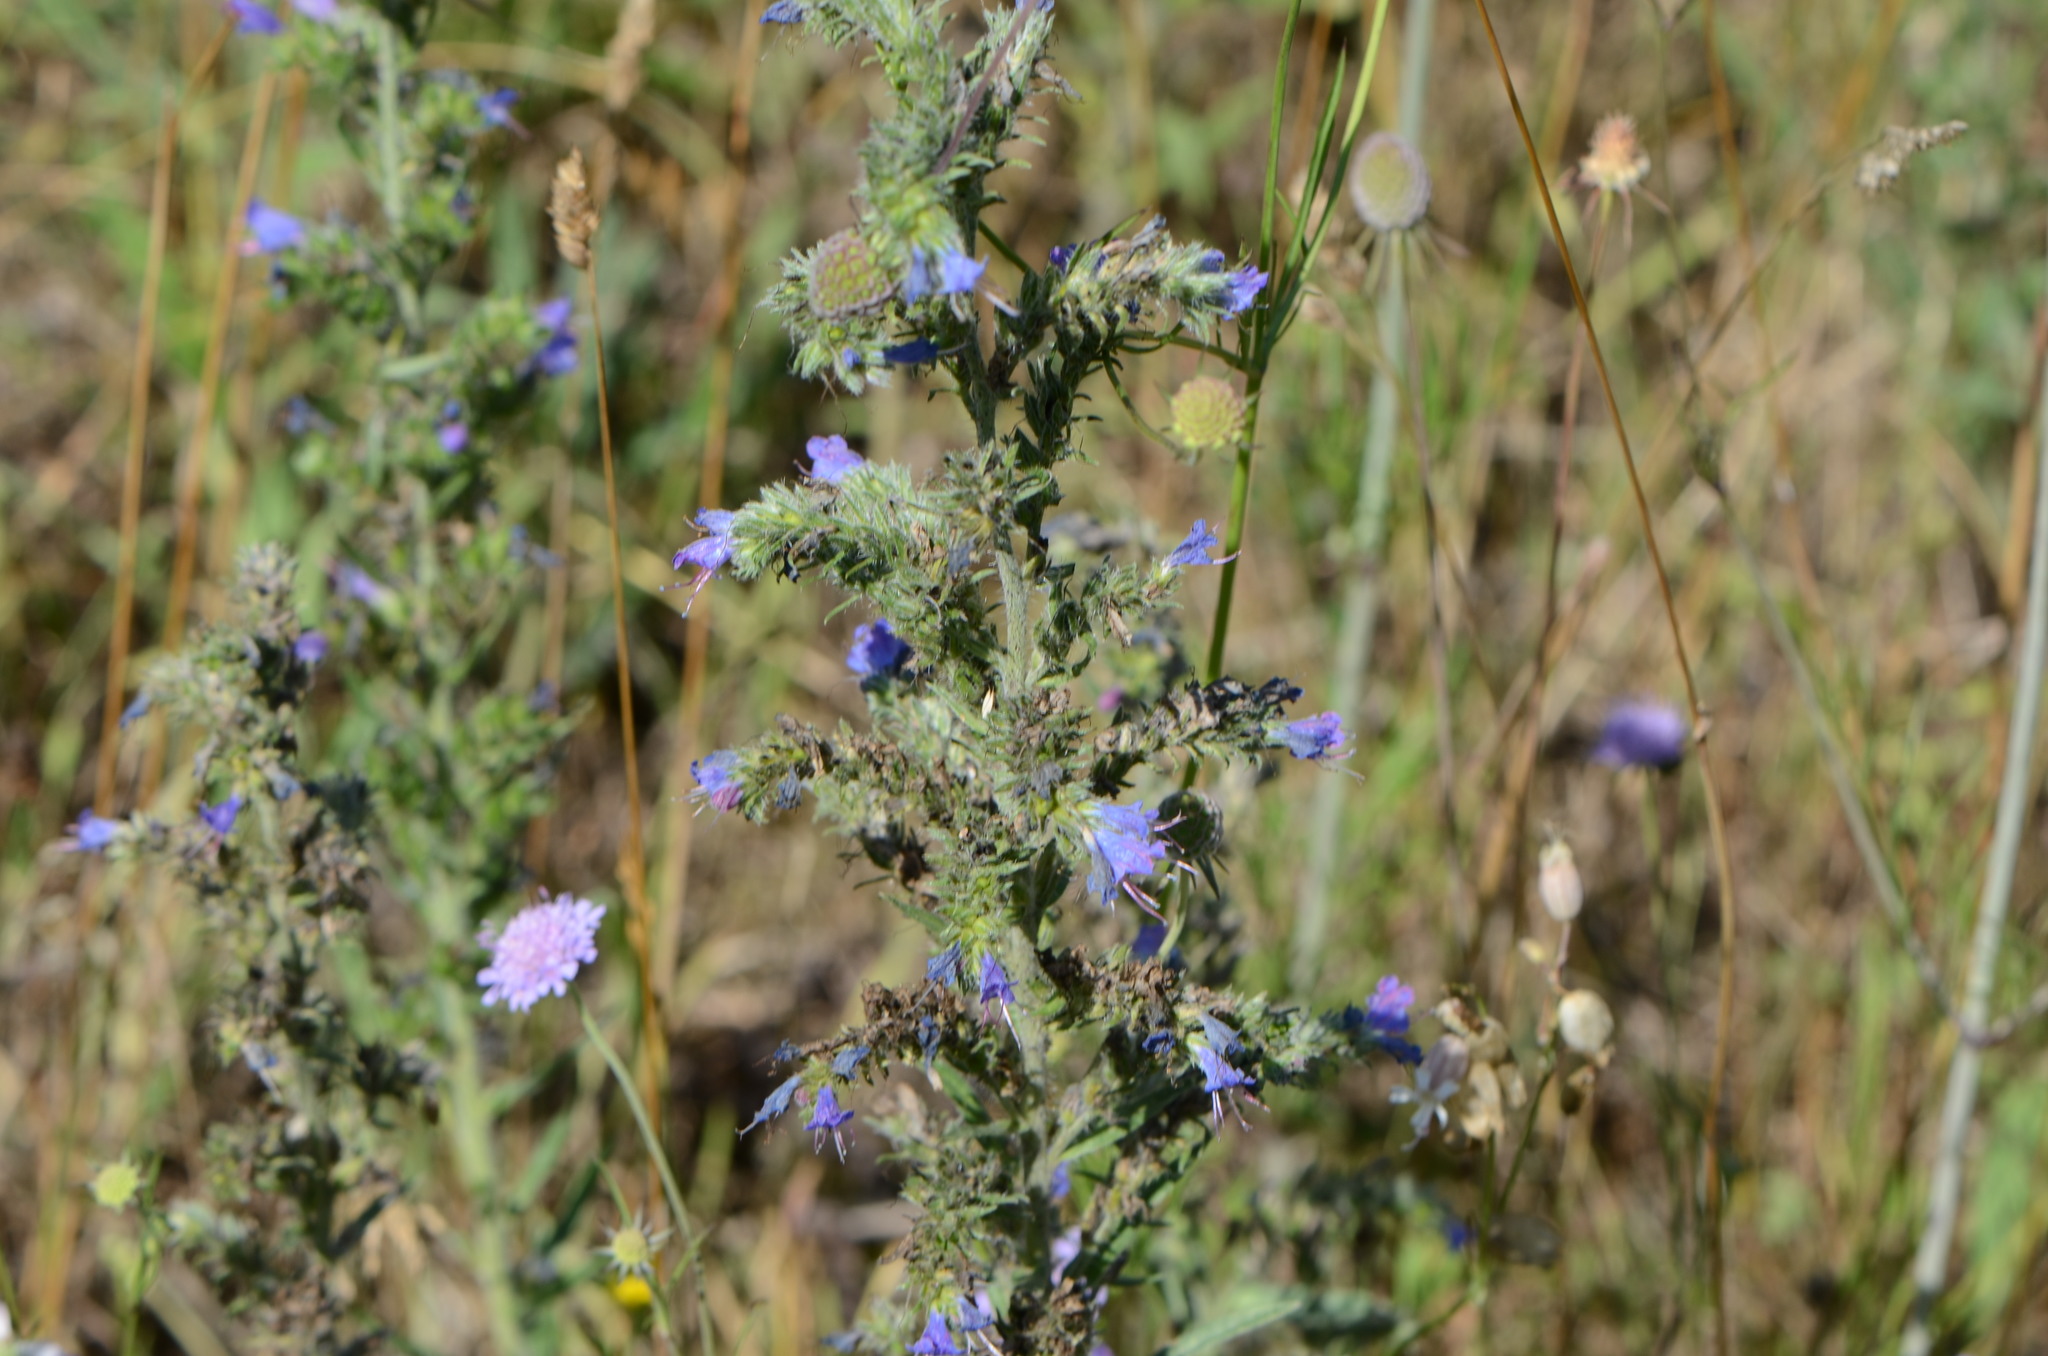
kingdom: Plantae
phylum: Tracheophyta
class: Magnoliopsida
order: Boraginales
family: Boraginaceae
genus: Echium
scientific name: Echium vulgare
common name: Common viper's bugloss
